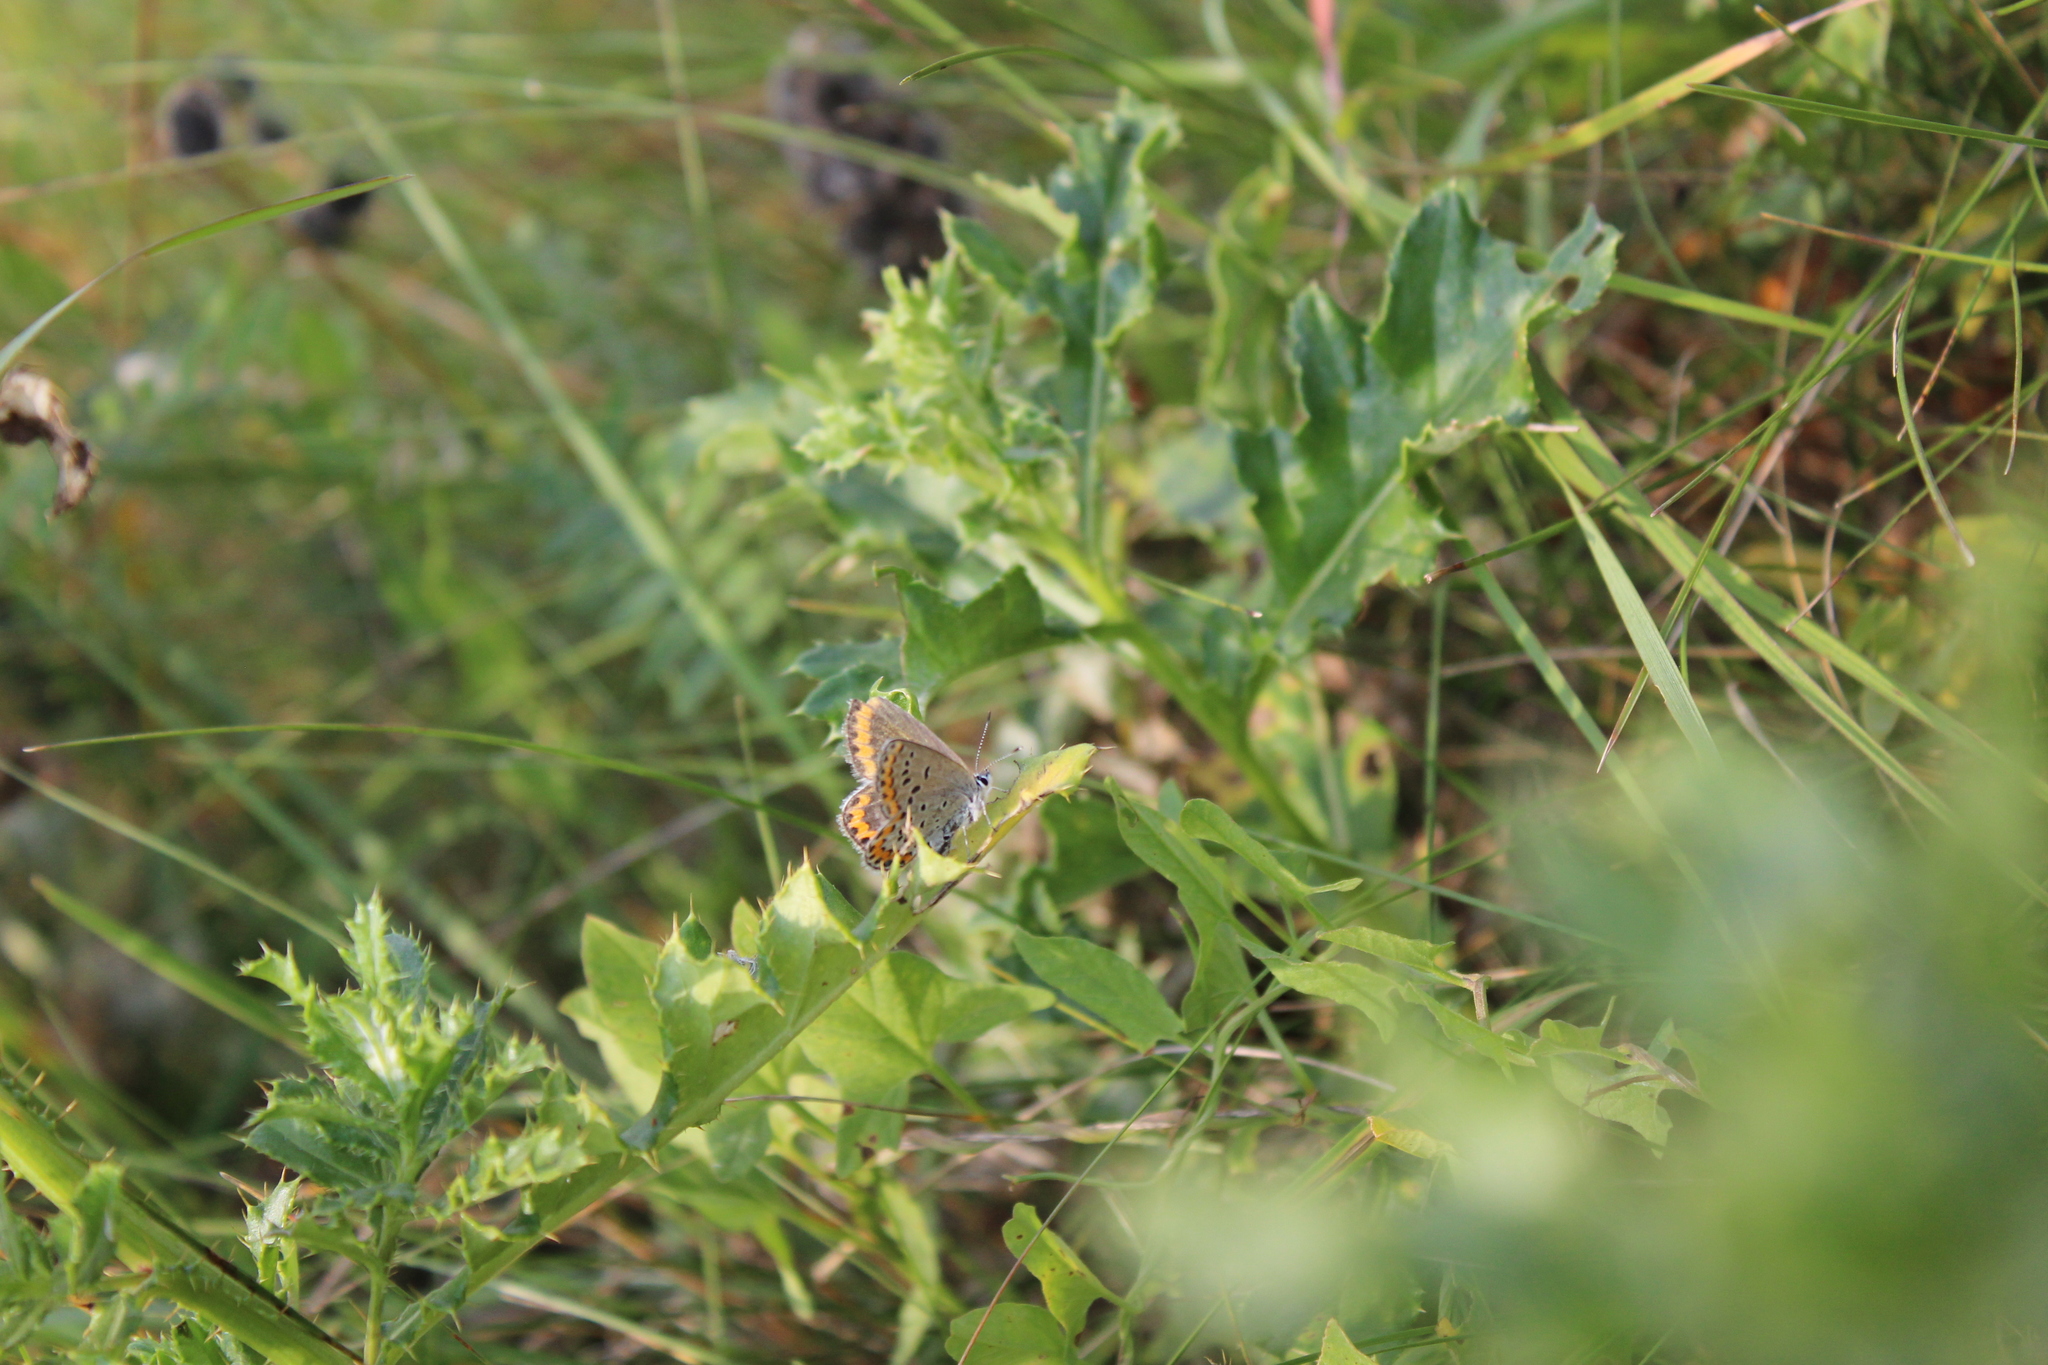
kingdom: Animalia
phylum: Arthropoda
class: Insecta
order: Lepidoptera
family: Lycaenidae
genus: Lycaeides
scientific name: Lycaeides melissa
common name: Melissa blue
